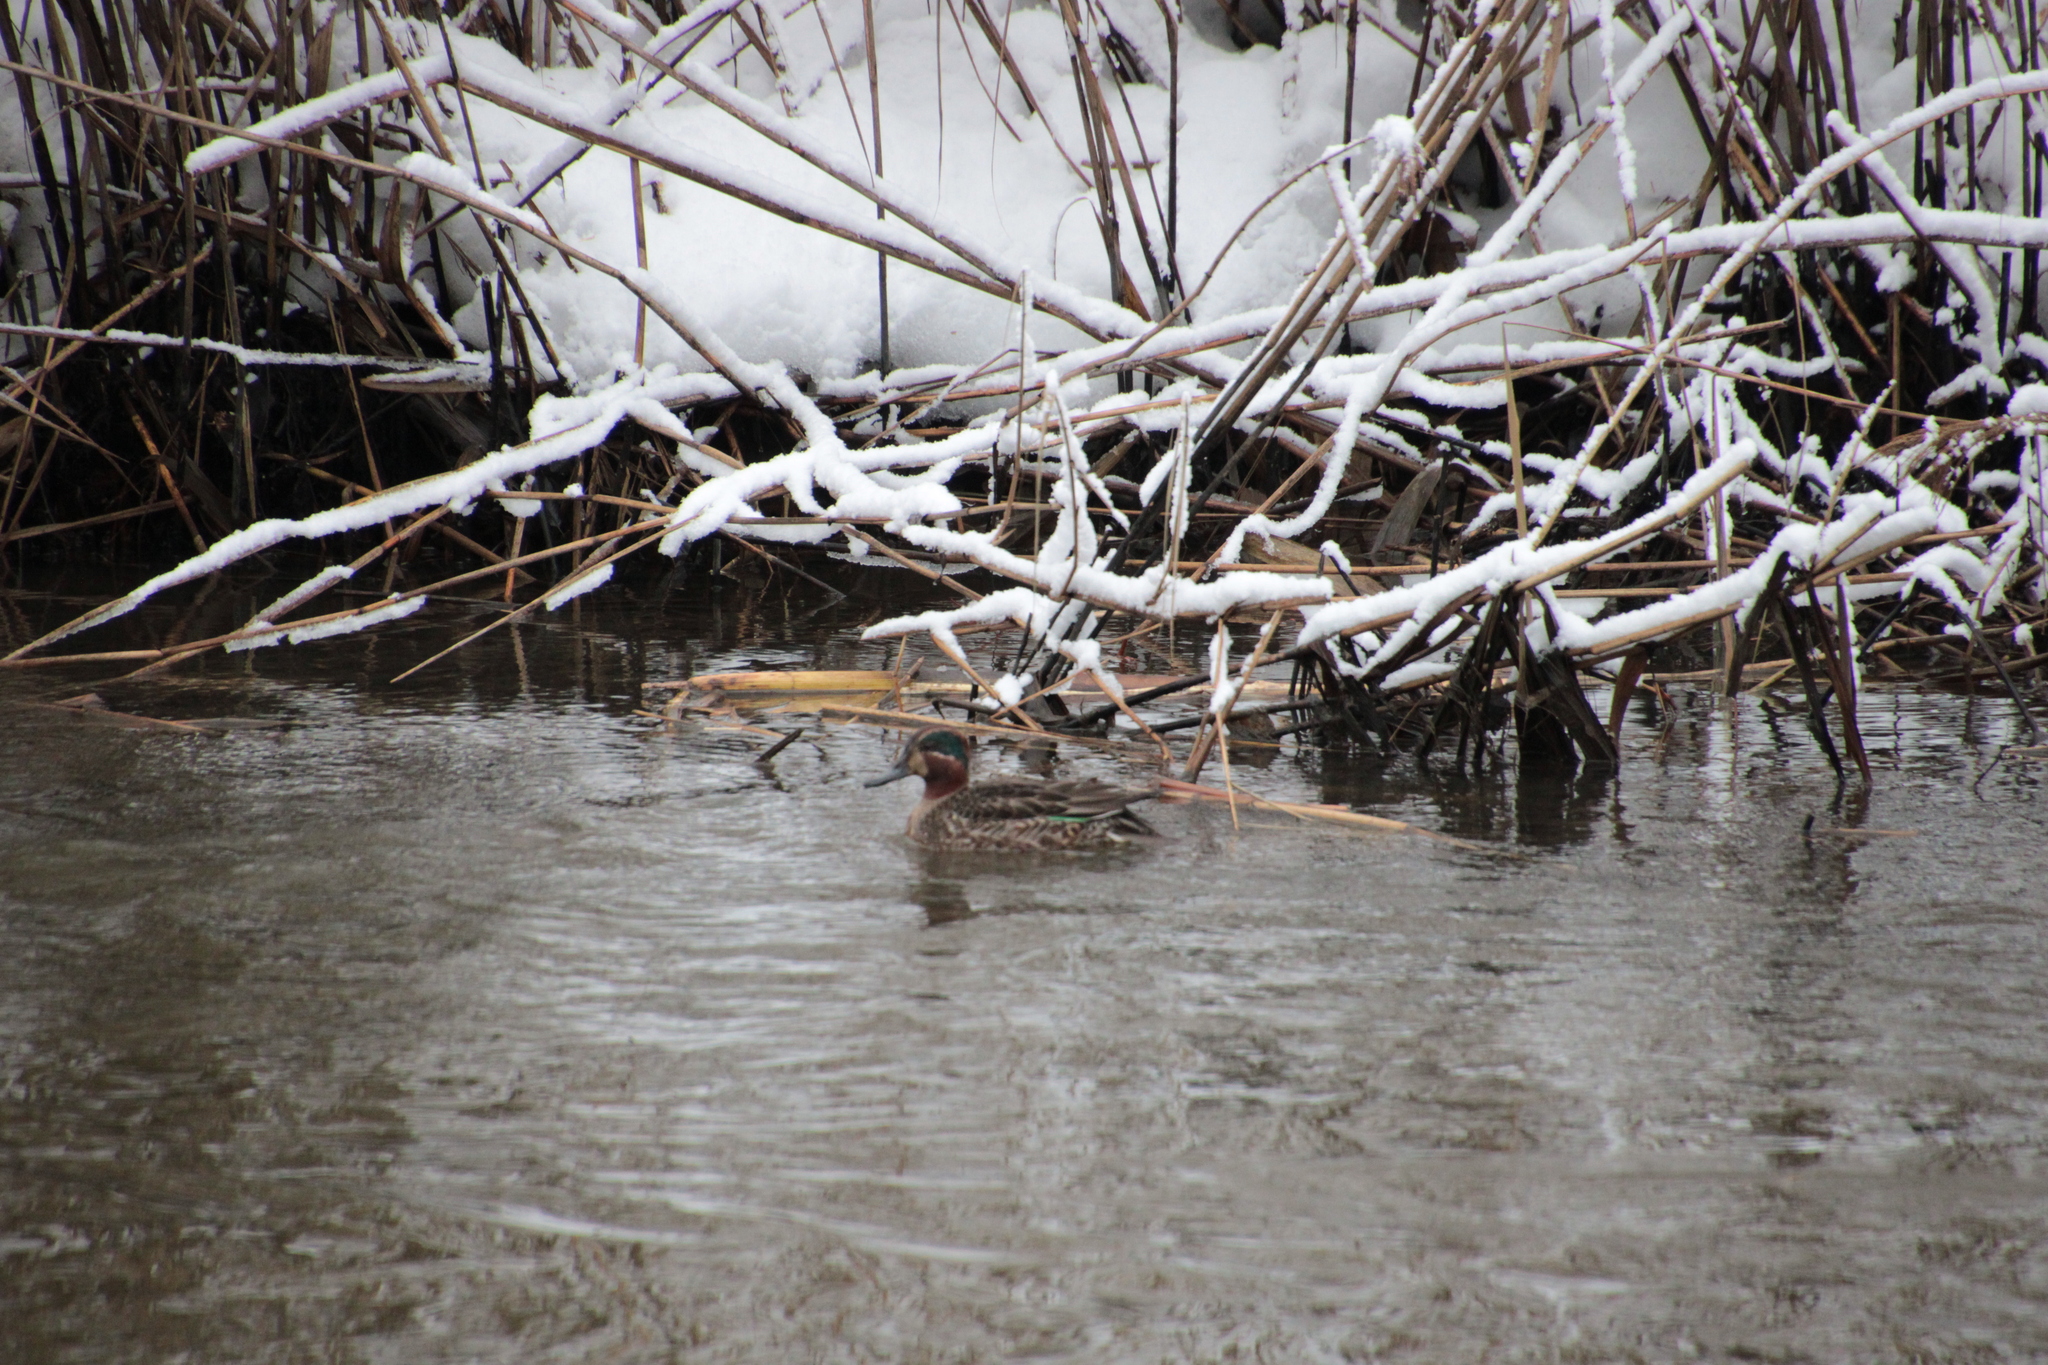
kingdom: Animalia
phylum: Chordata
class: Aves
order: Anseriformes
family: Anatidae
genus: Anas
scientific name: Anas crecca
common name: Eurasian teal
